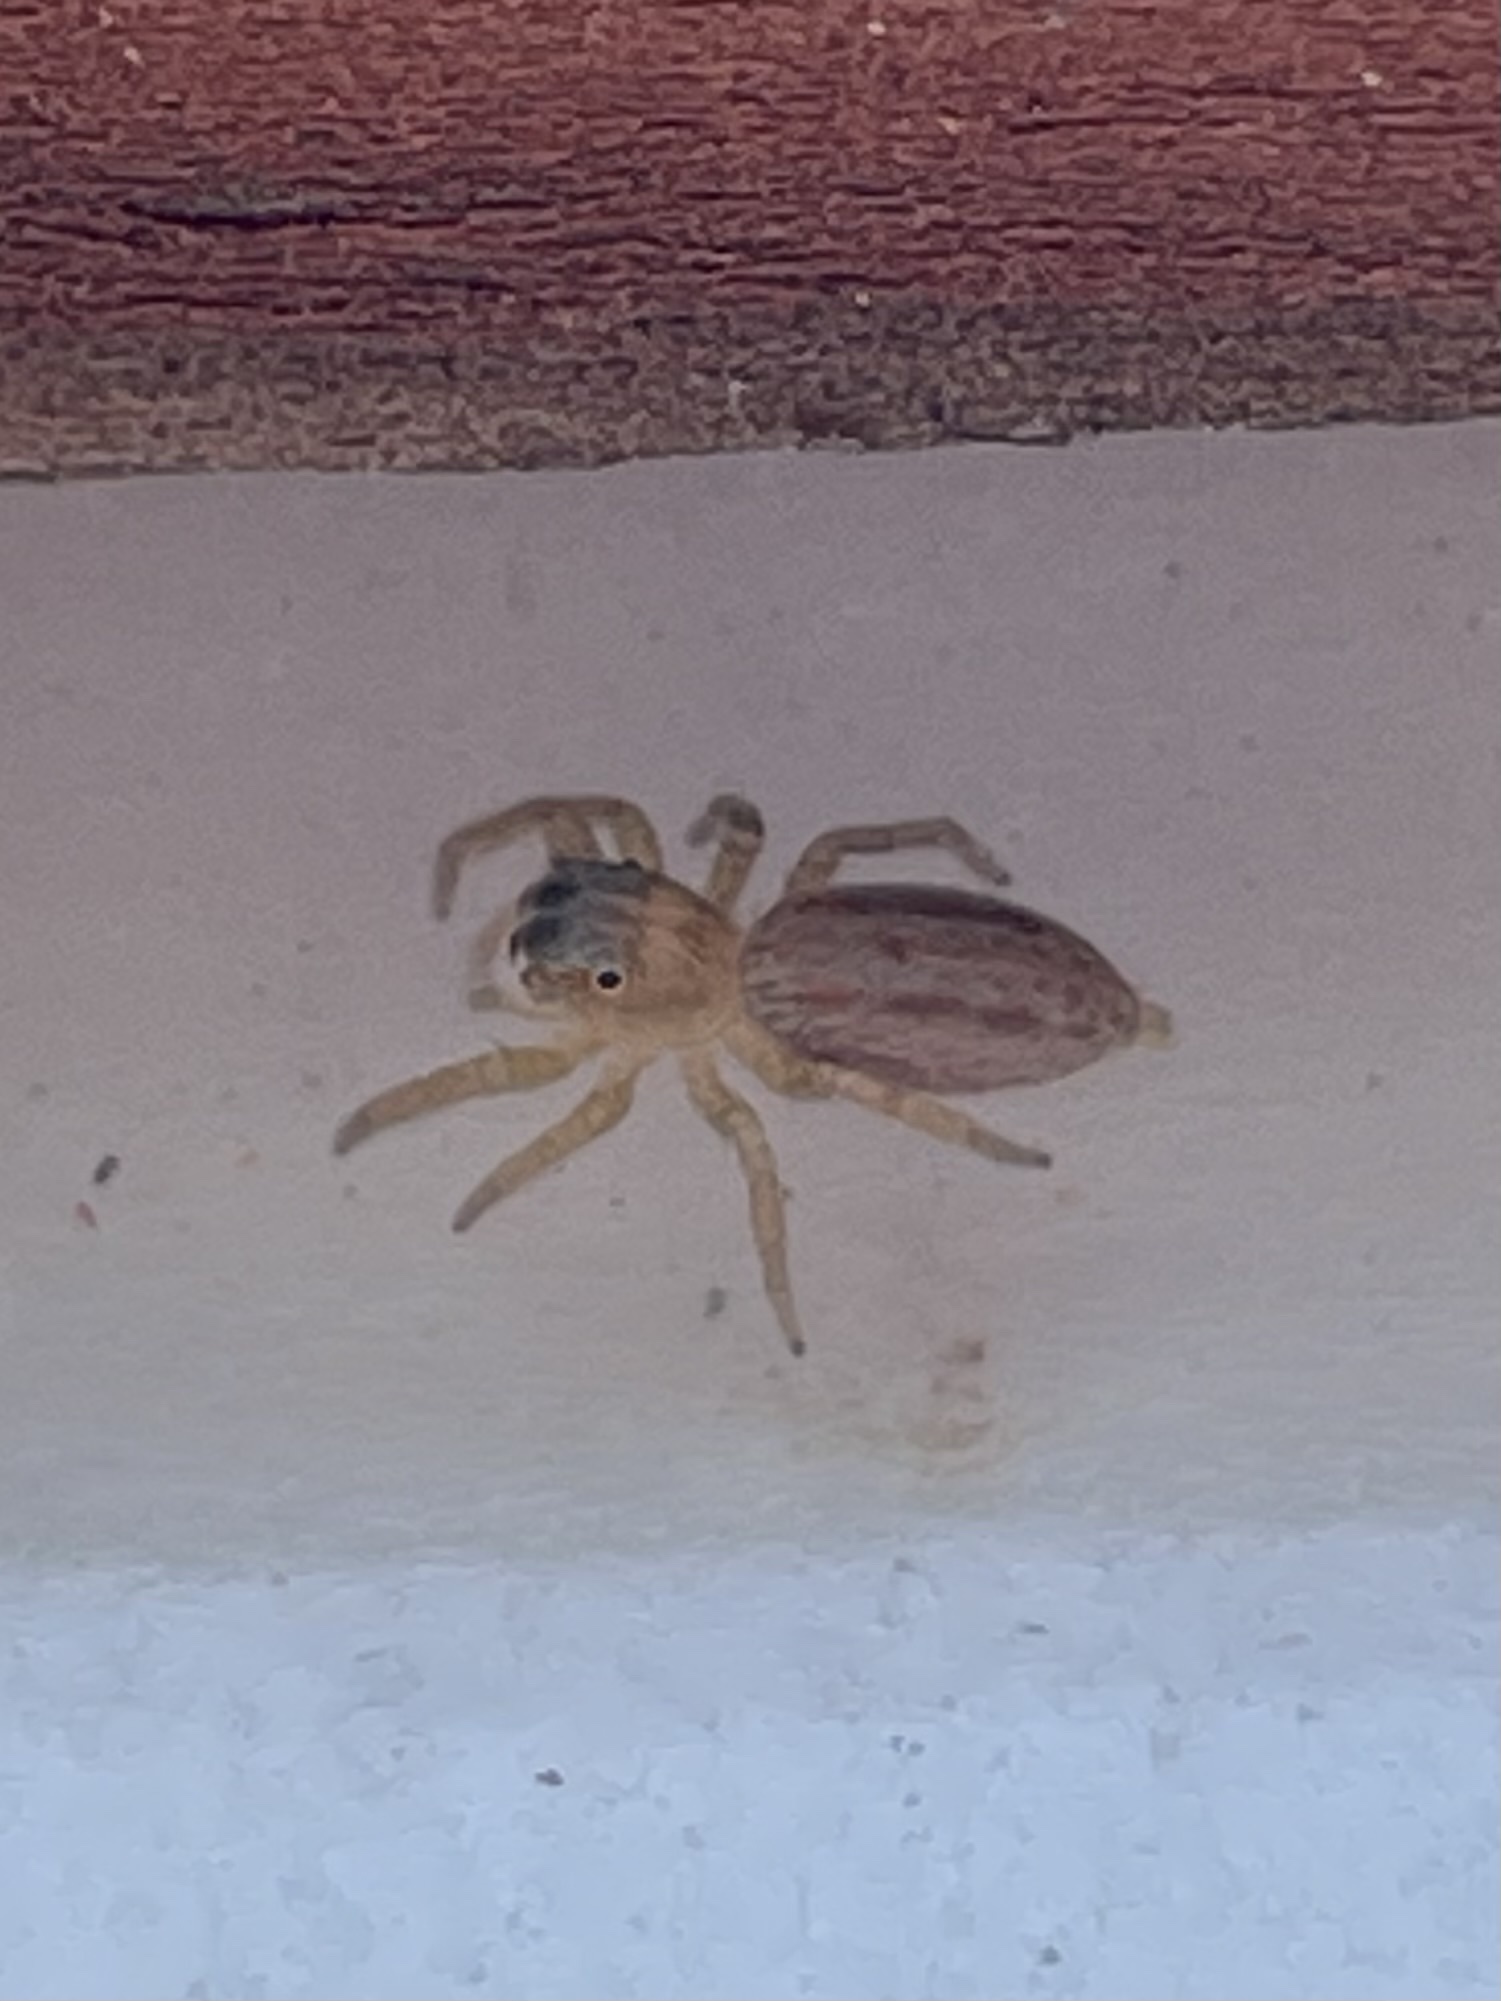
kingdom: Animalia
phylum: Arthropoda
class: Arachnida
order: Araneae
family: Salticidae
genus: Paramaevia
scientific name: Paramaevia poultoni
